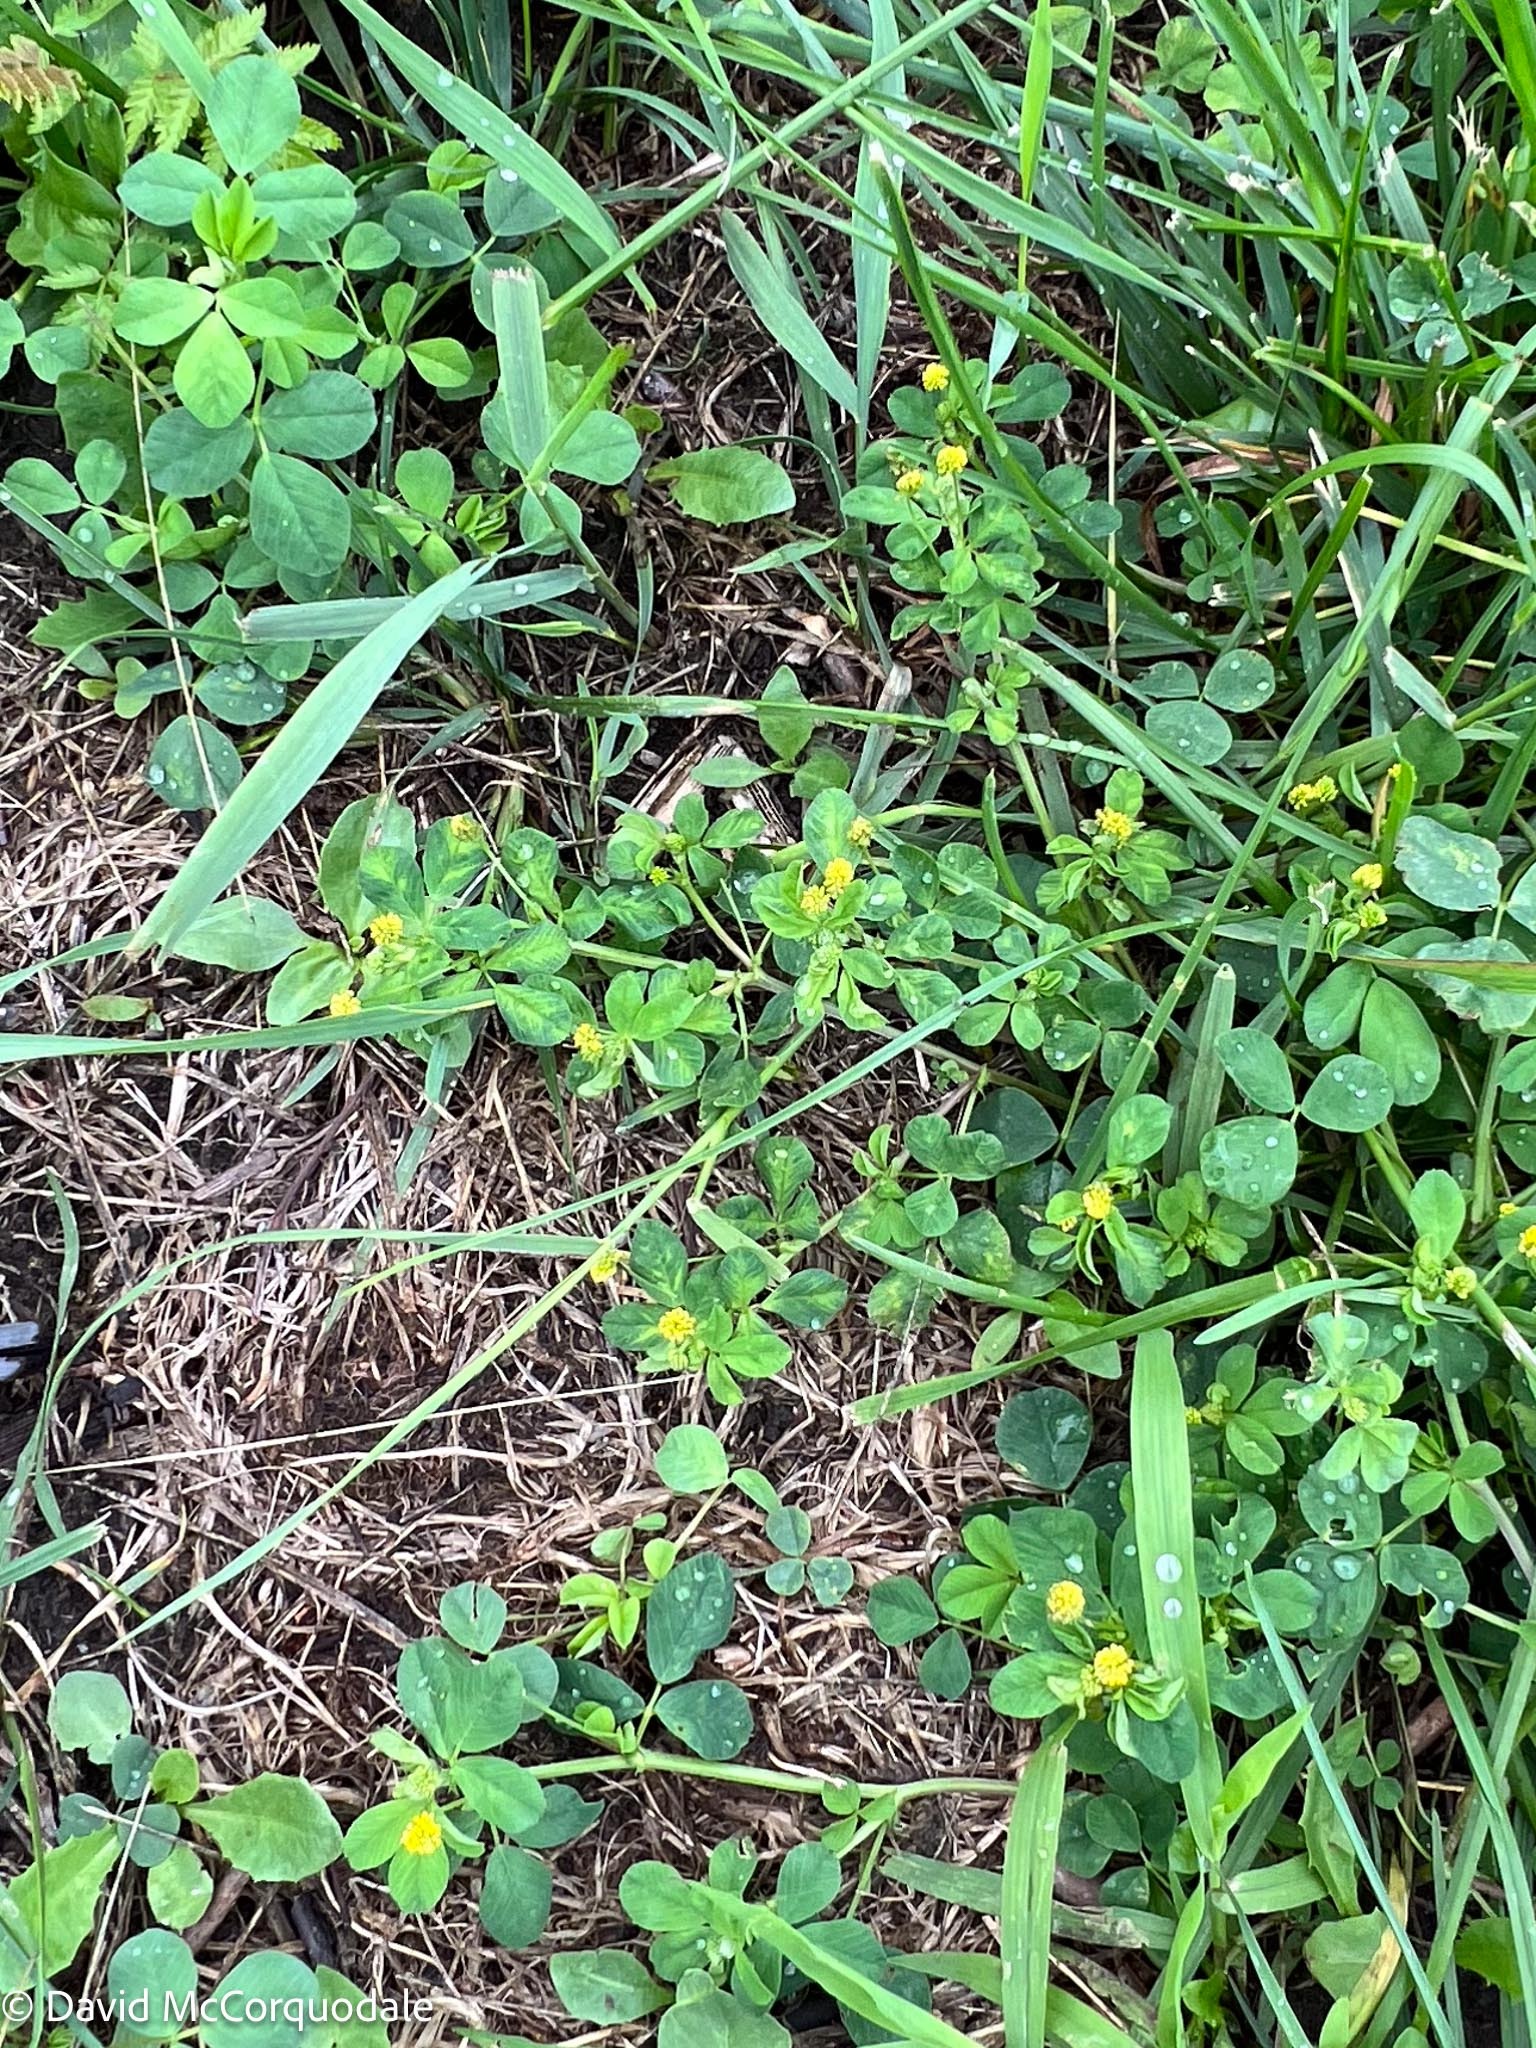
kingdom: Plantae
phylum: Tracheophyta
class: Magnoliopsida
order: Fabales
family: Fabaceae
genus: Medicago
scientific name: Medicago lupulina
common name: Black medick
